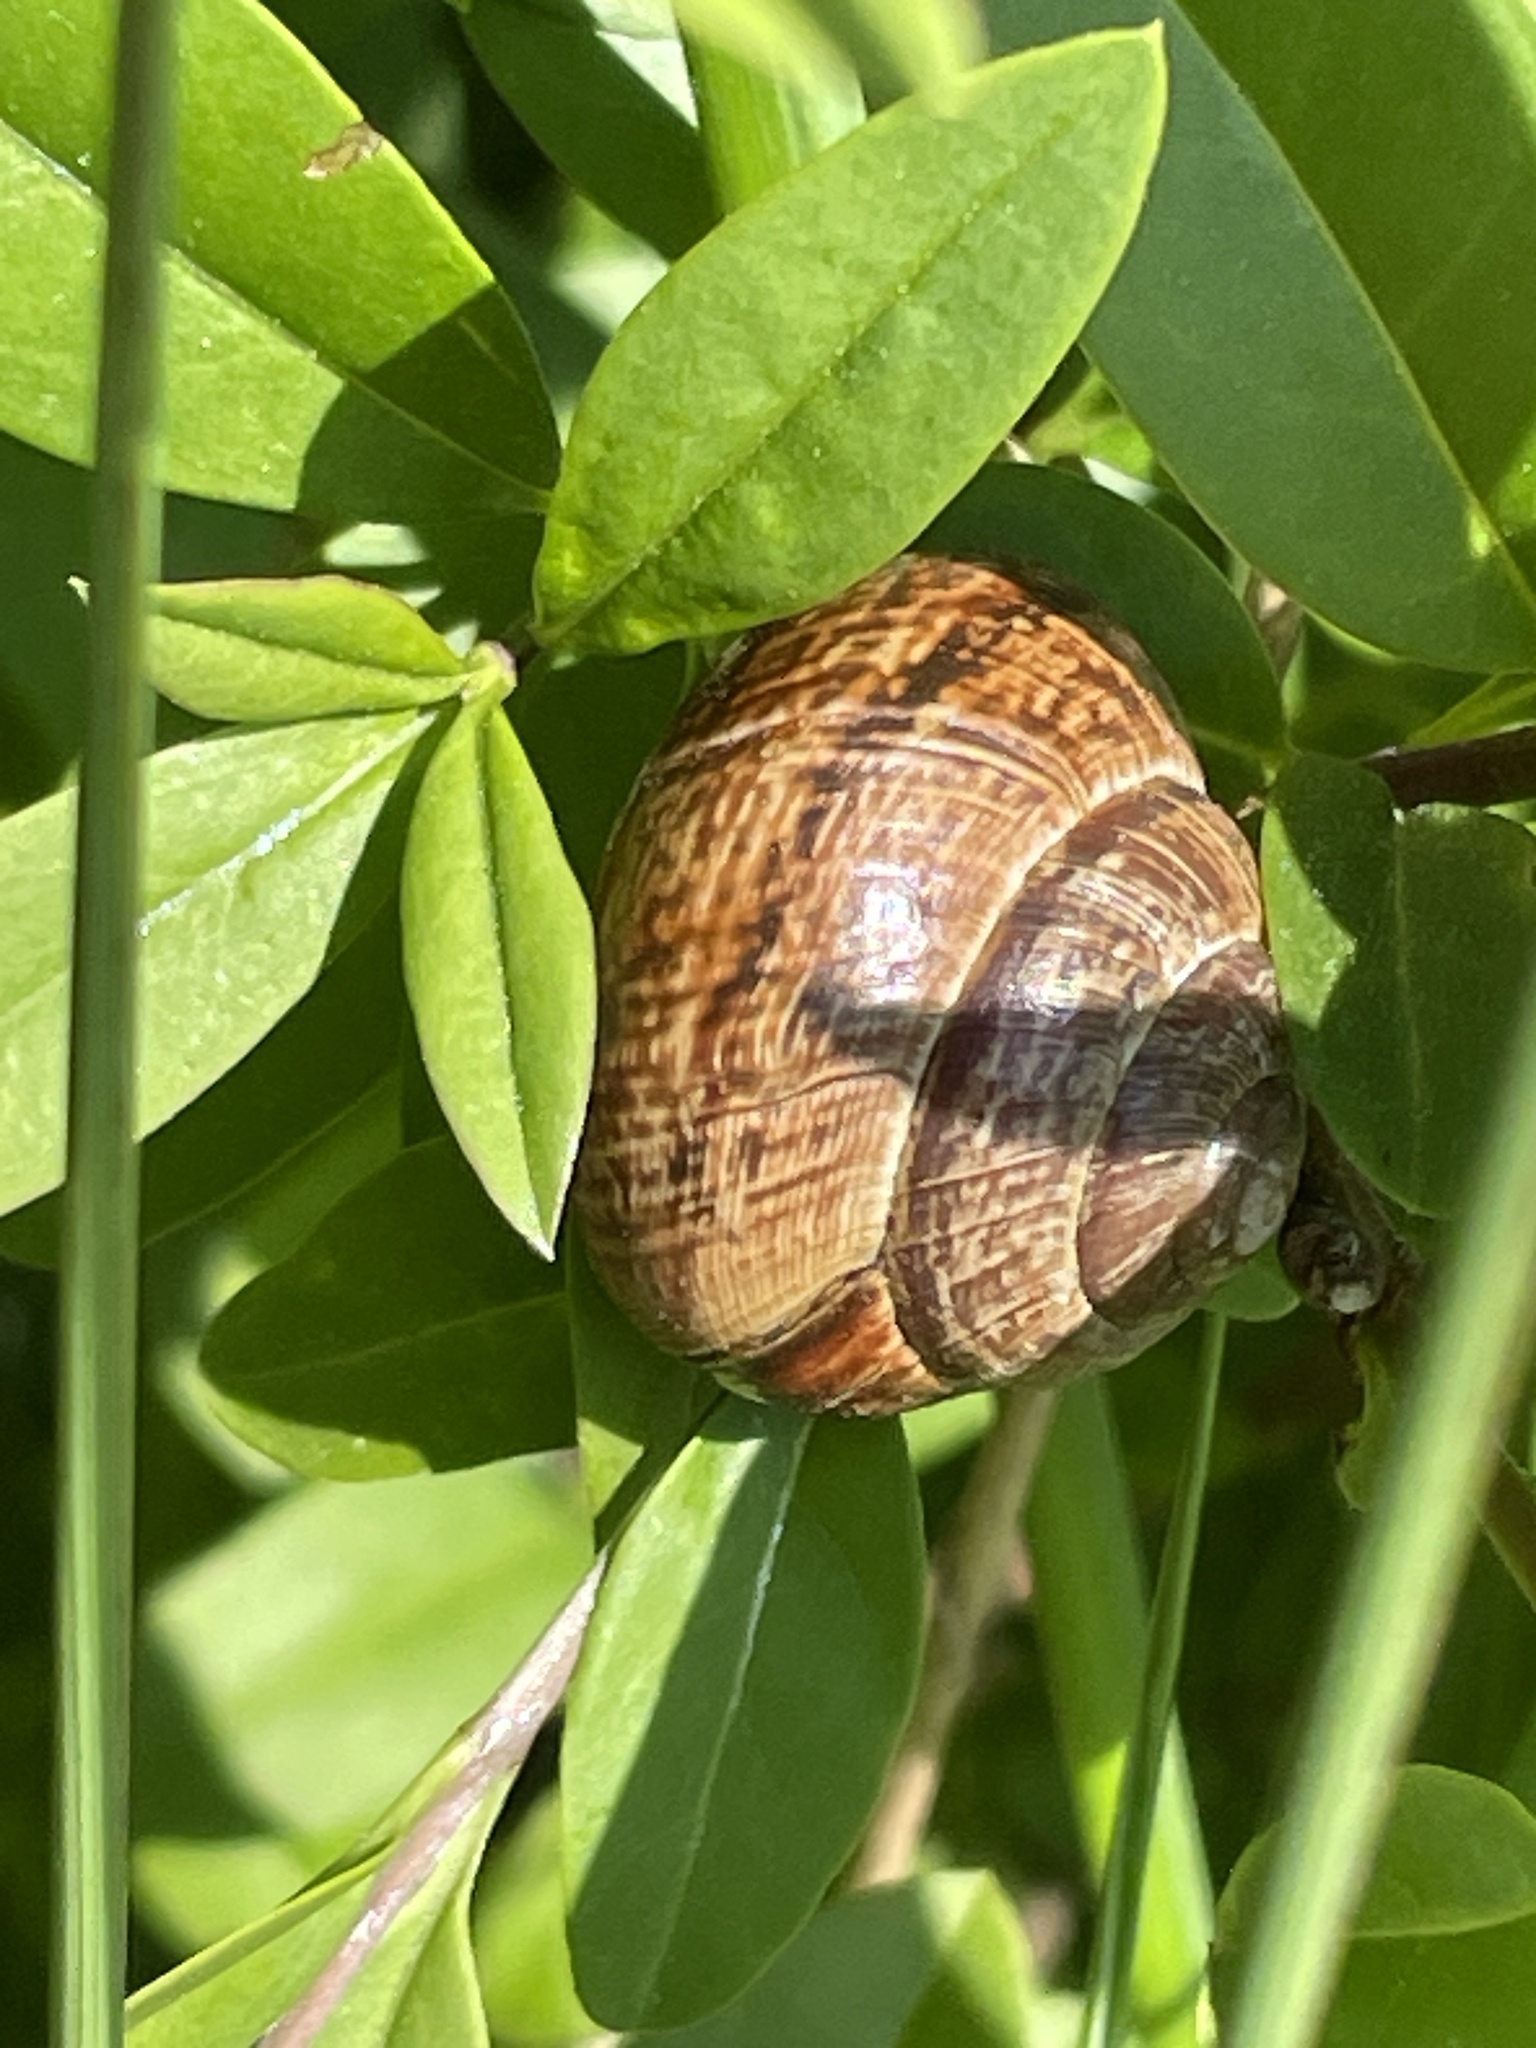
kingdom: Animalia
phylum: Mollusca
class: Gastropoda
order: Stylommatophora
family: Helicidae
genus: Arianta
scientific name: Arianta arbustorum
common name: Copse snail
